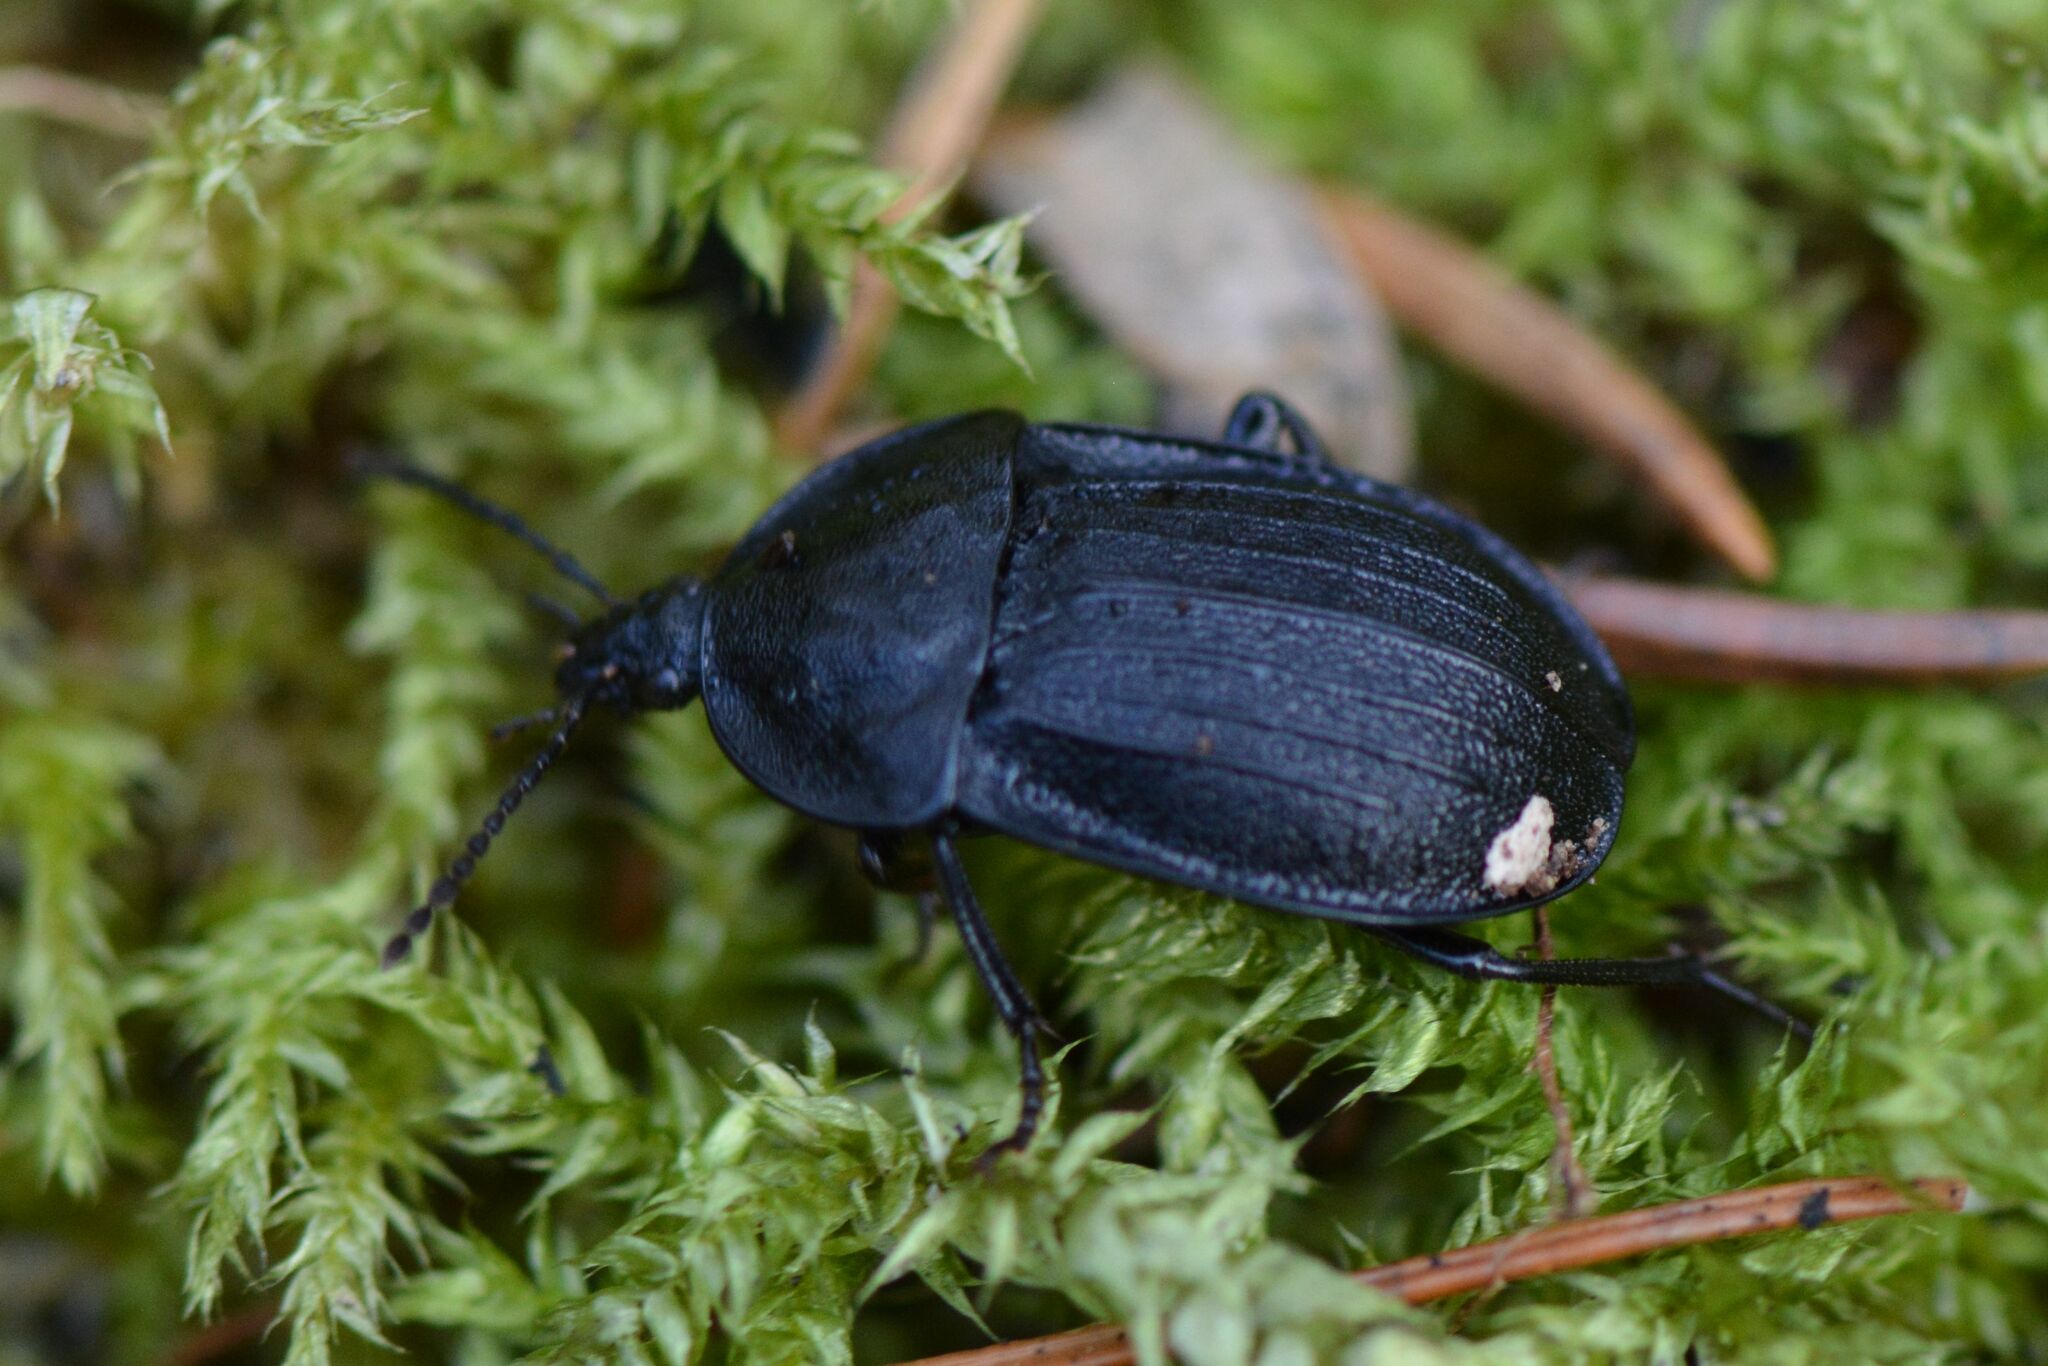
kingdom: Animalia
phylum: Arthropoda
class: Insecta
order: Coleoptera
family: Staphylinidae
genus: Silpha
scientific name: Silpha atrata
